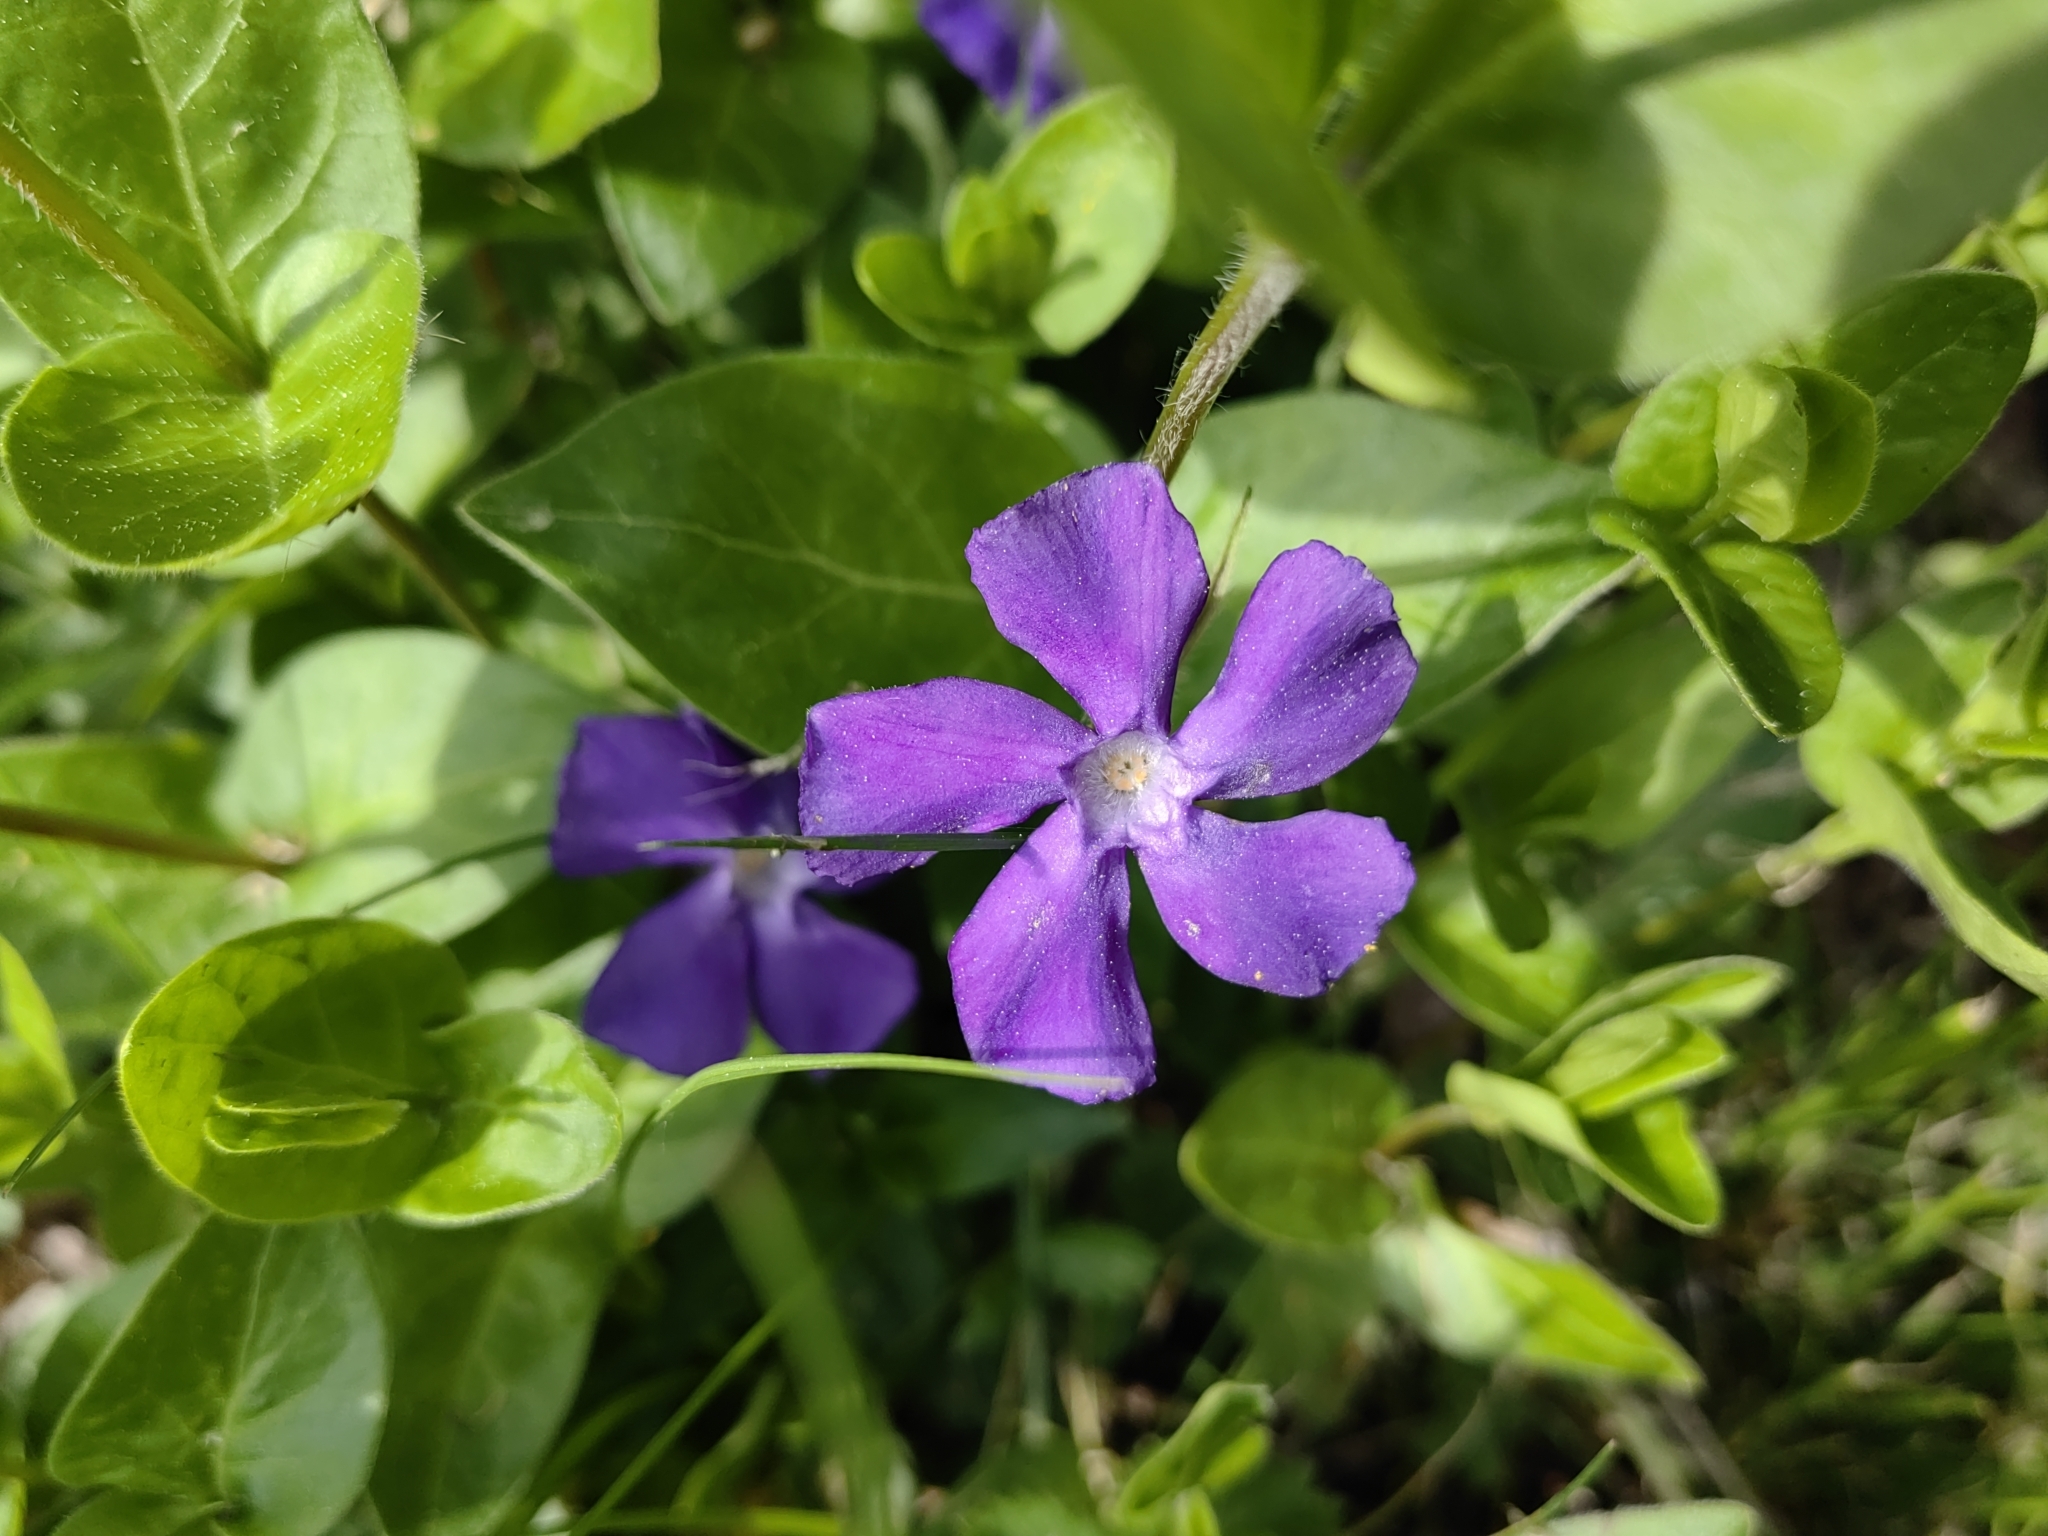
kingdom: Plantae
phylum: Tracheophyta
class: Magnoliopsida
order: Gentianales
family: Apocynaceae
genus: Vinca
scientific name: Vinca major
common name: Greater periwinkle
